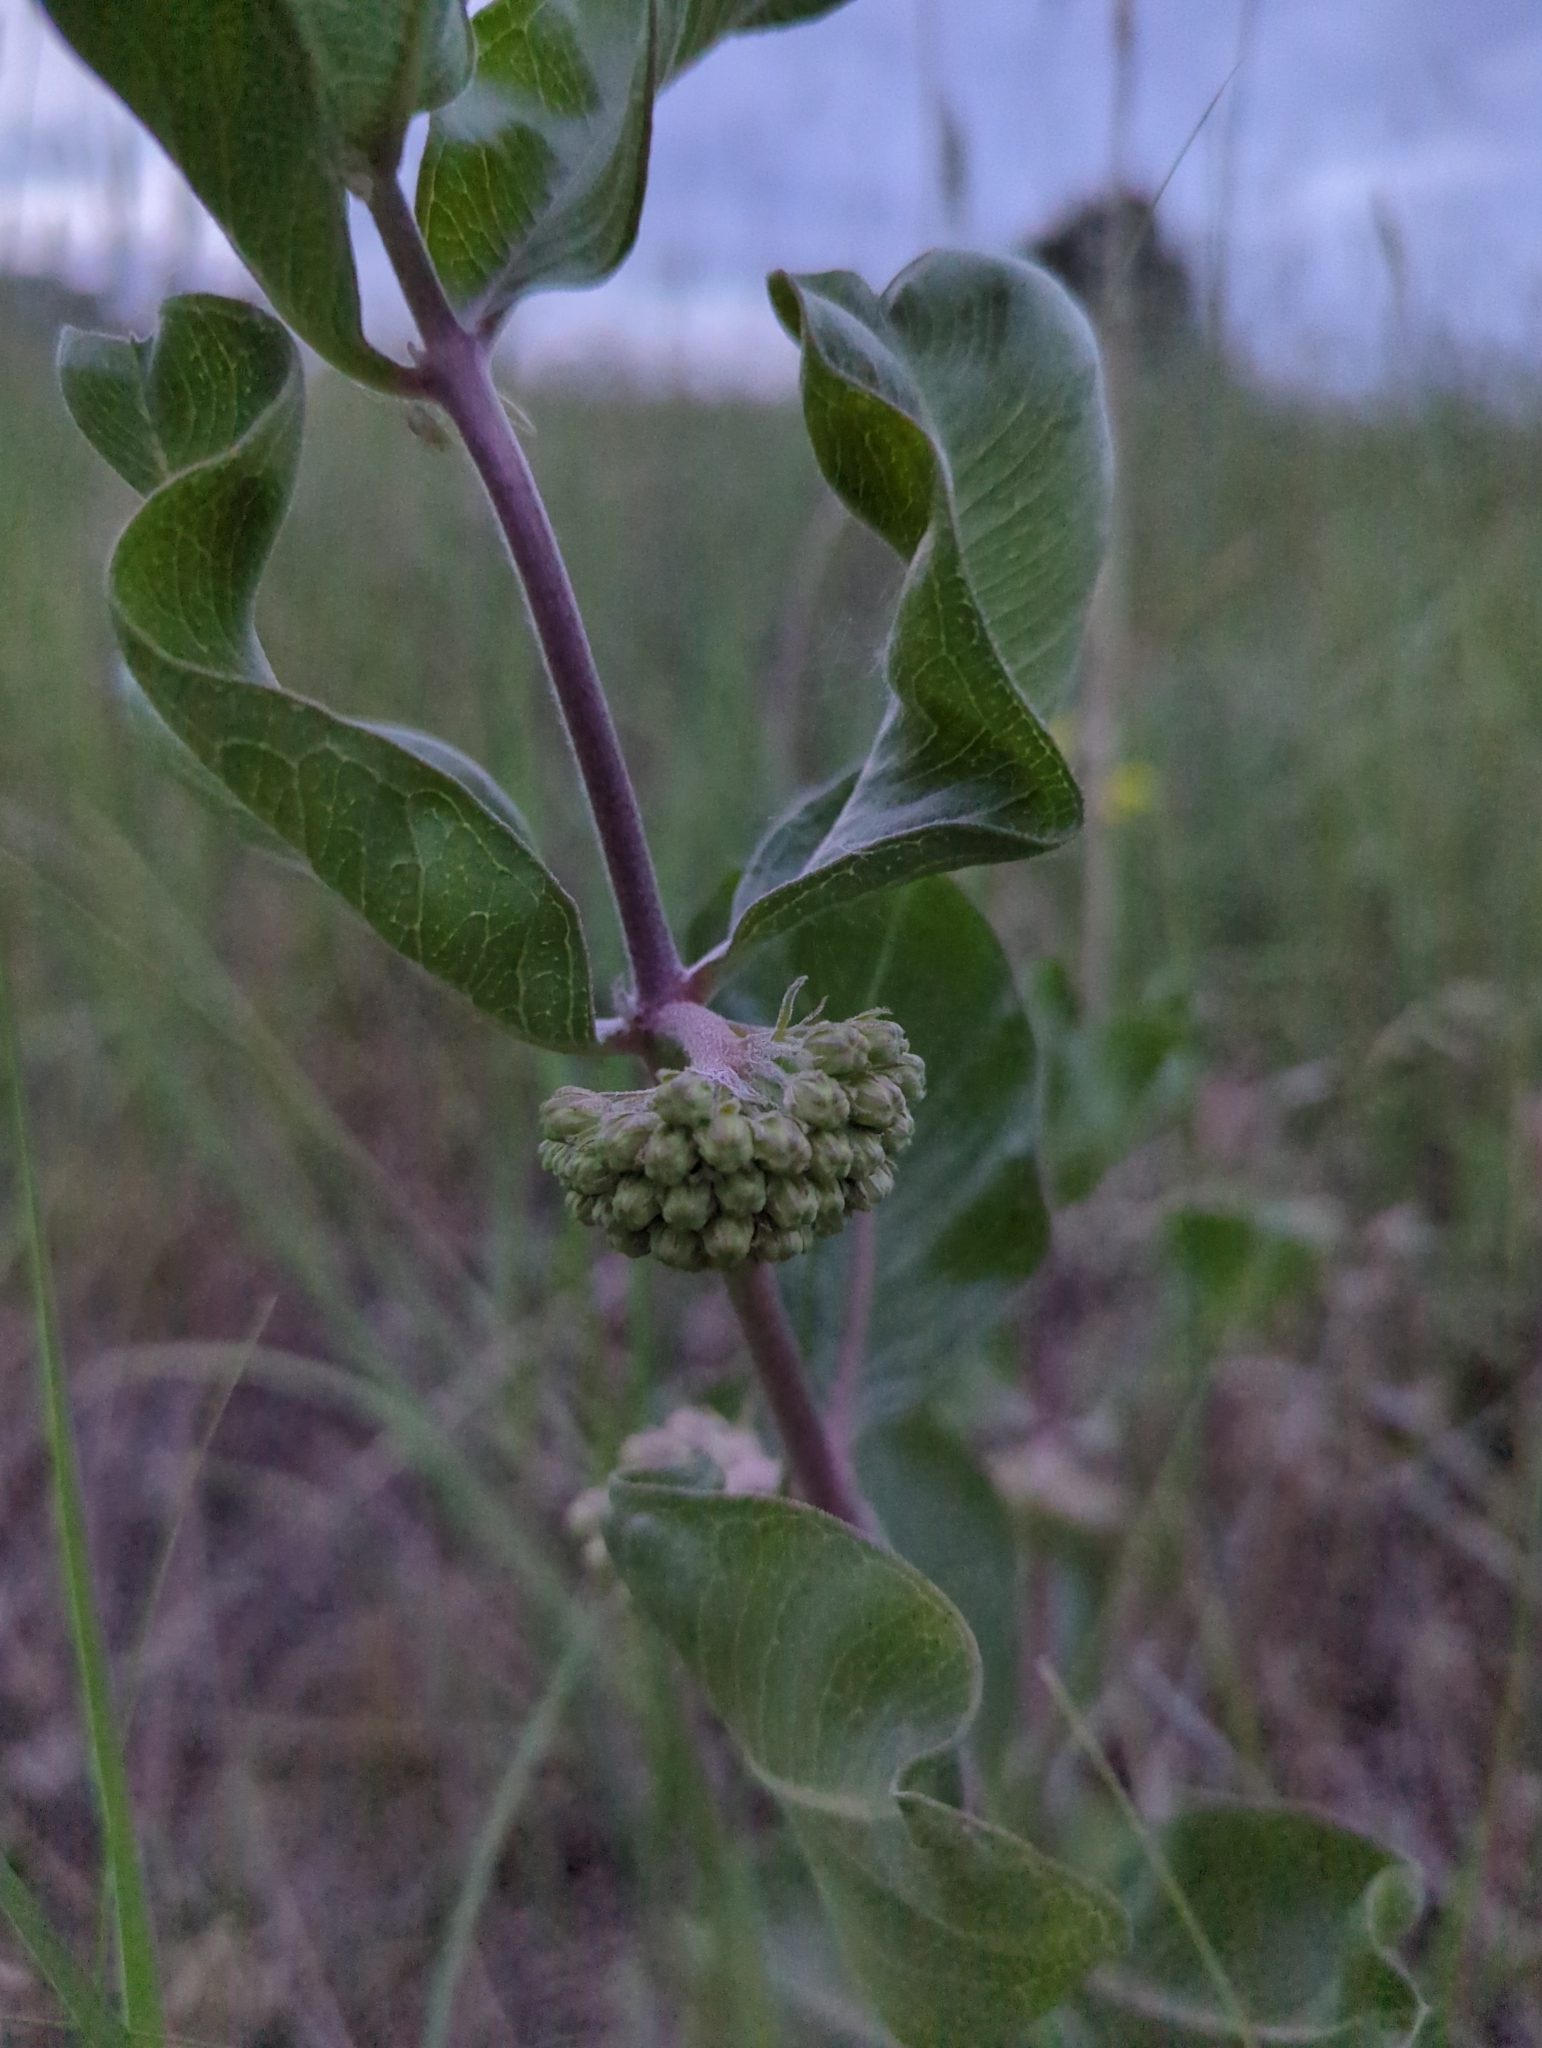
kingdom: Plantae
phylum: Tracheophyta
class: Magnoliopsida
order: Gentianales
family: Apocynaceae
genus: Asclepias
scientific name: Asclepias viridiflora
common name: Green comet milkweed
